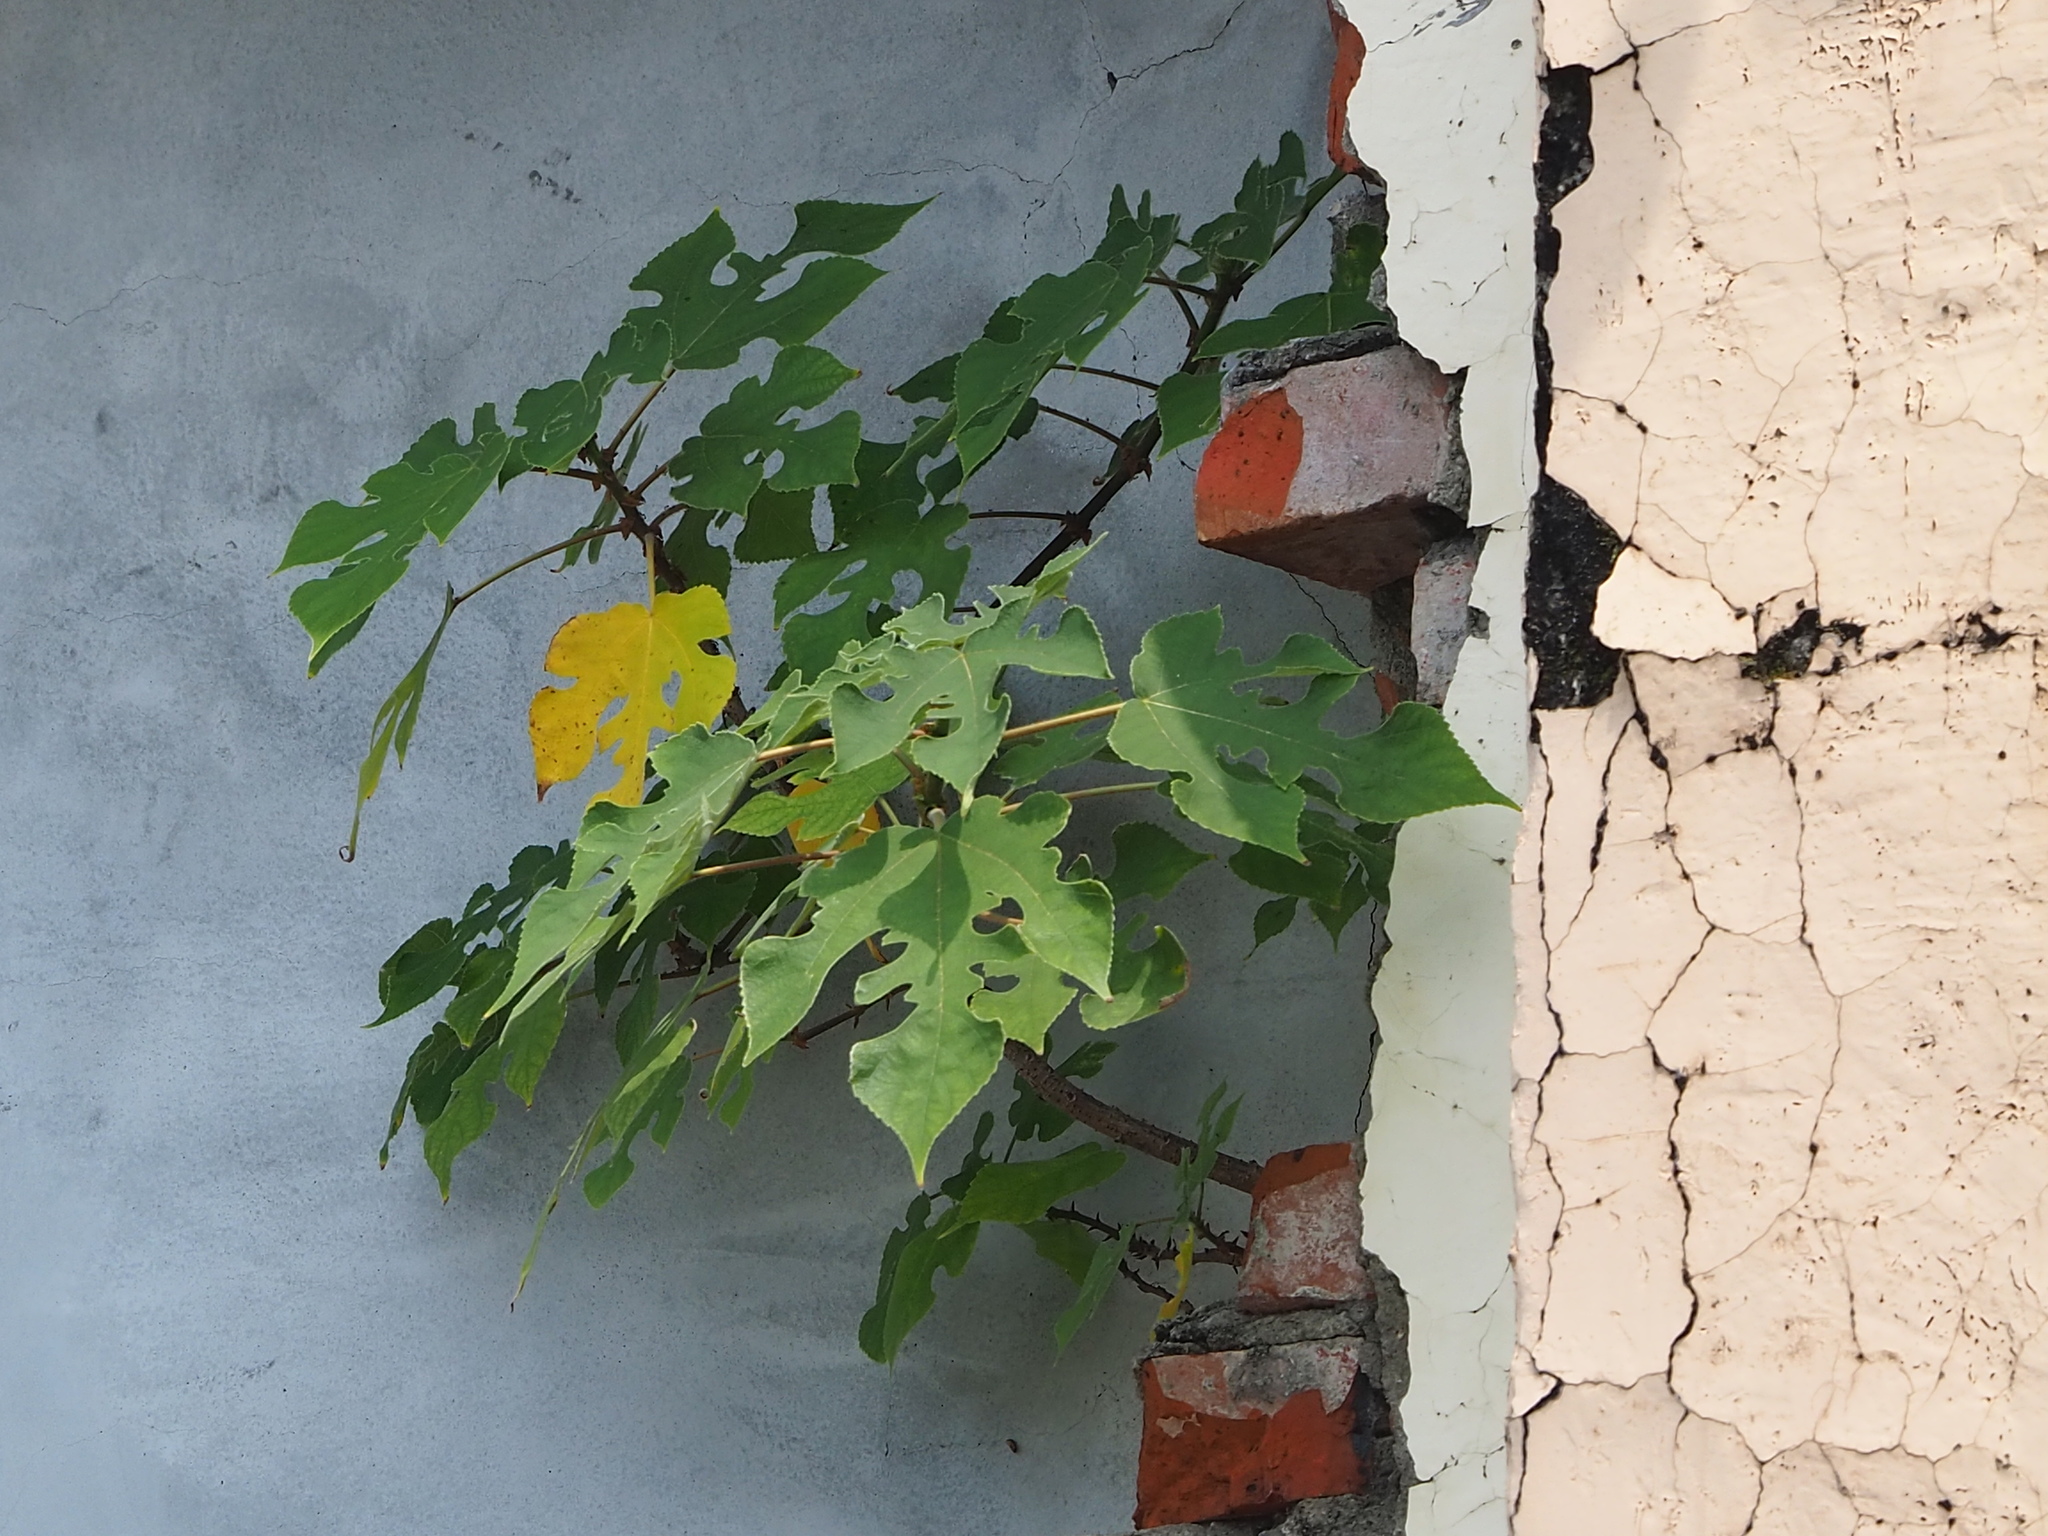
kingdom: Plantae
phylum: Tracheophyta
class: Magnoliopsida
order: Rosales
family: Moraceae
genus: Broussonetia
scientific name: Broussonetia papyrifera
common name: Paper mulberry
